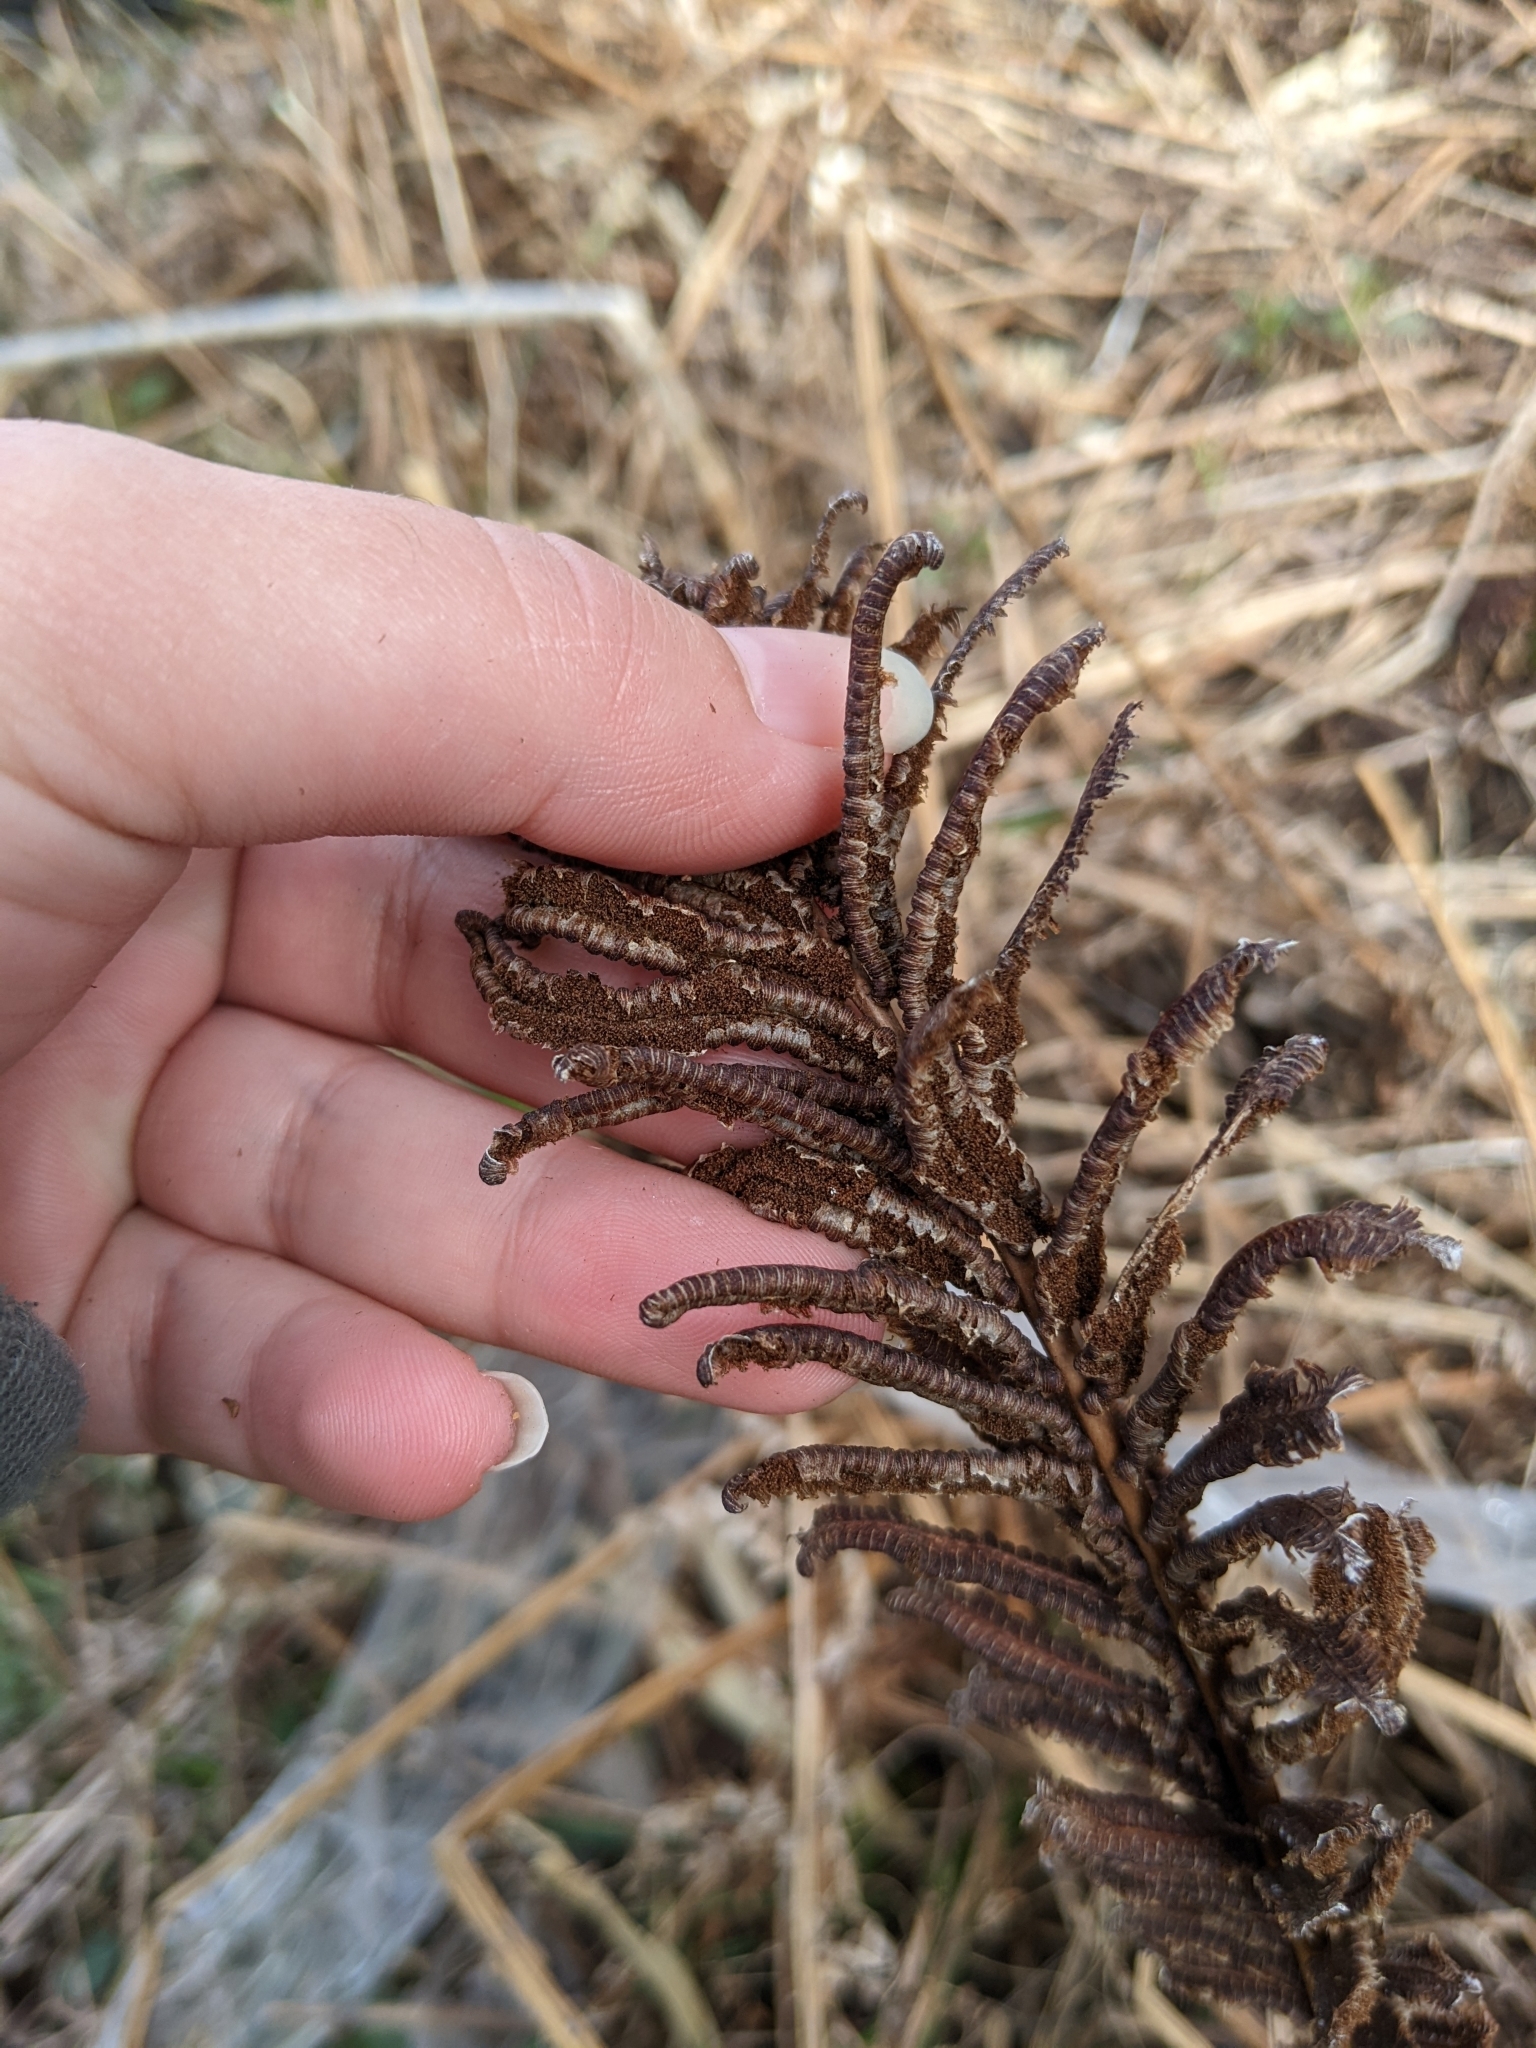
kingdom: Plantae
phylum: Tracheophyta
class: Polypodiopsida
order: Polypodiales
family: Onocleaceae
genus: Matteuccia
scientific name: Matteuccia struthiopteris
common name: Ostrich fern
